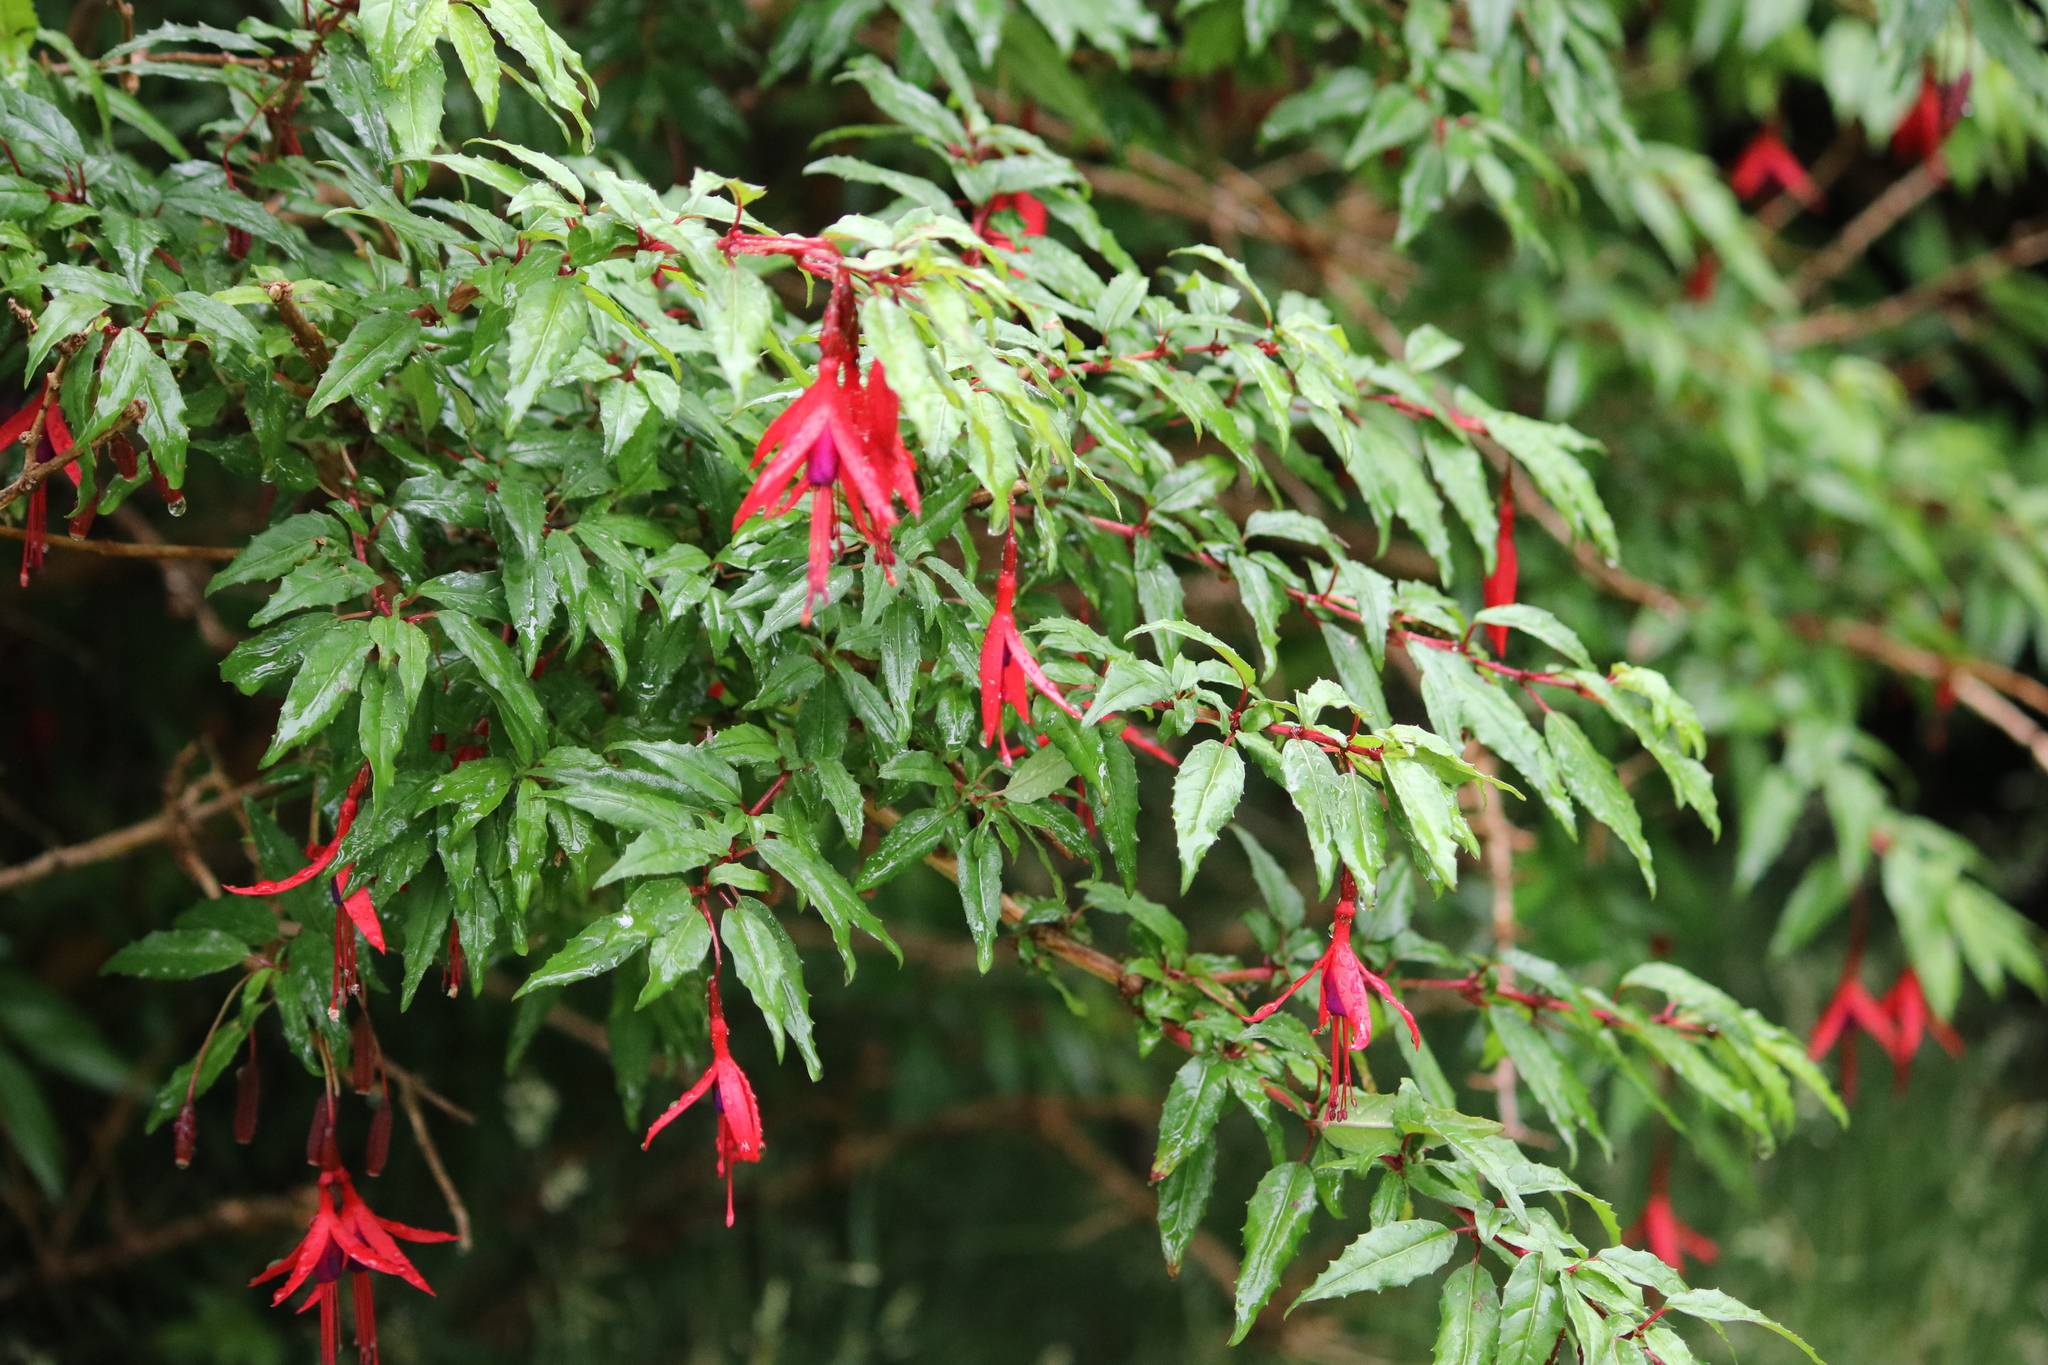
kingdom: Animalia
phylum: Chordata
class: Aves
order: Accipitriformes
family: Accipitridae
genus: Geranoaetus
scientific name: Geranoaetus melanoleucus
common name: Black-chested buzzard-eagle
